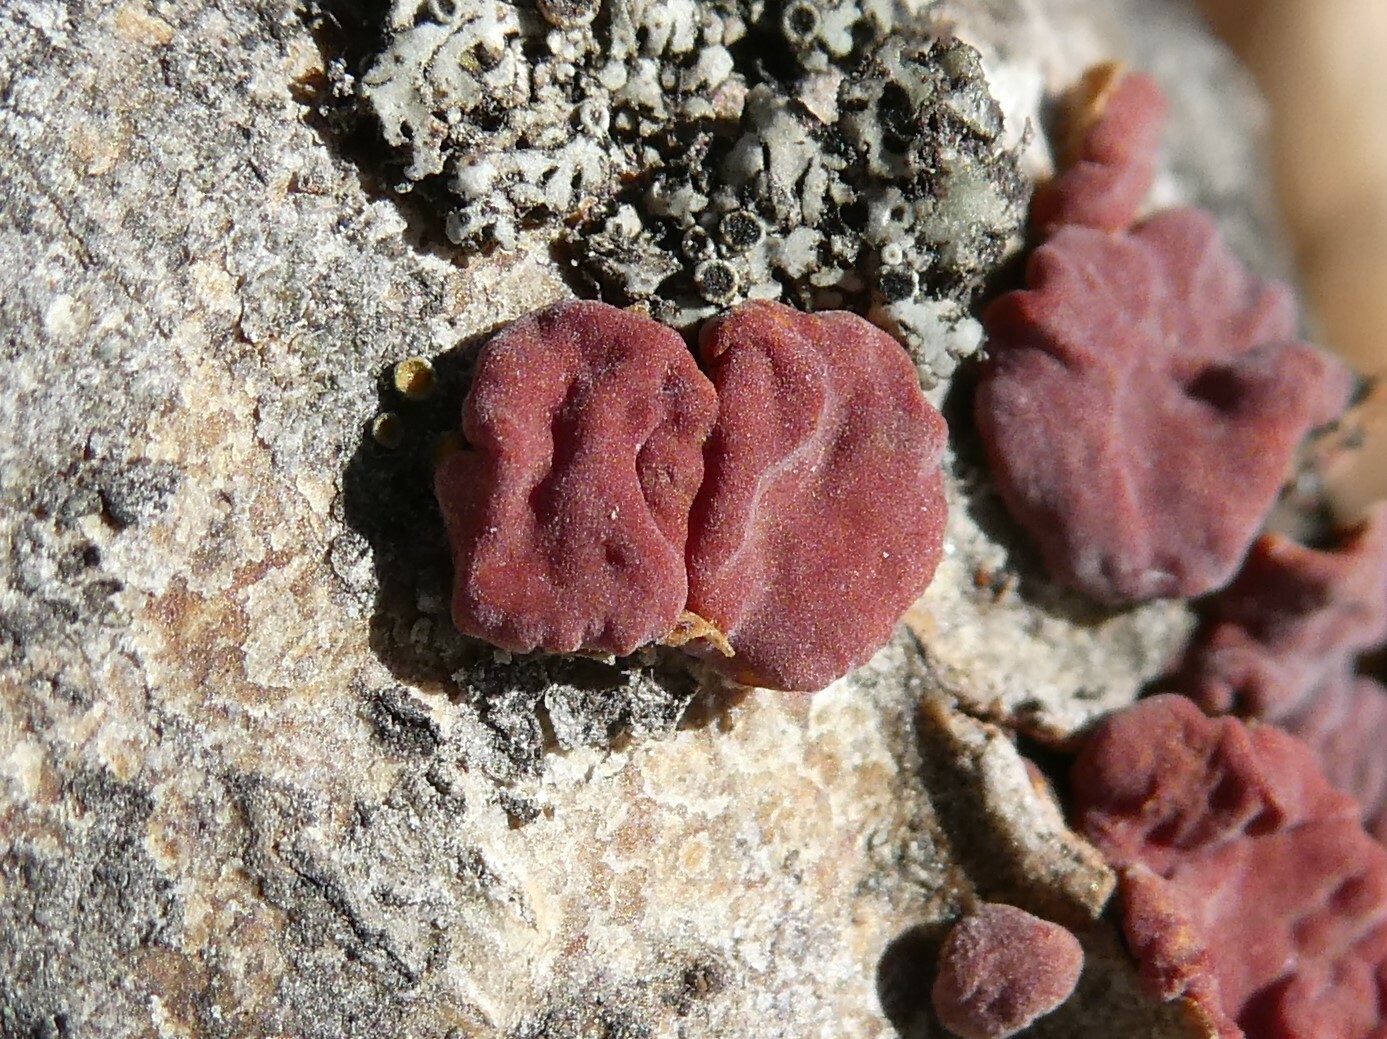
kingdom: Fungi
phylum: Basidiomycota
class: Agaricomycetes
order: Russulales
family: Peniophoraceae
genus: Peniophora
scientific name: Peniophora rufa
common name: Red tree brain fungus
